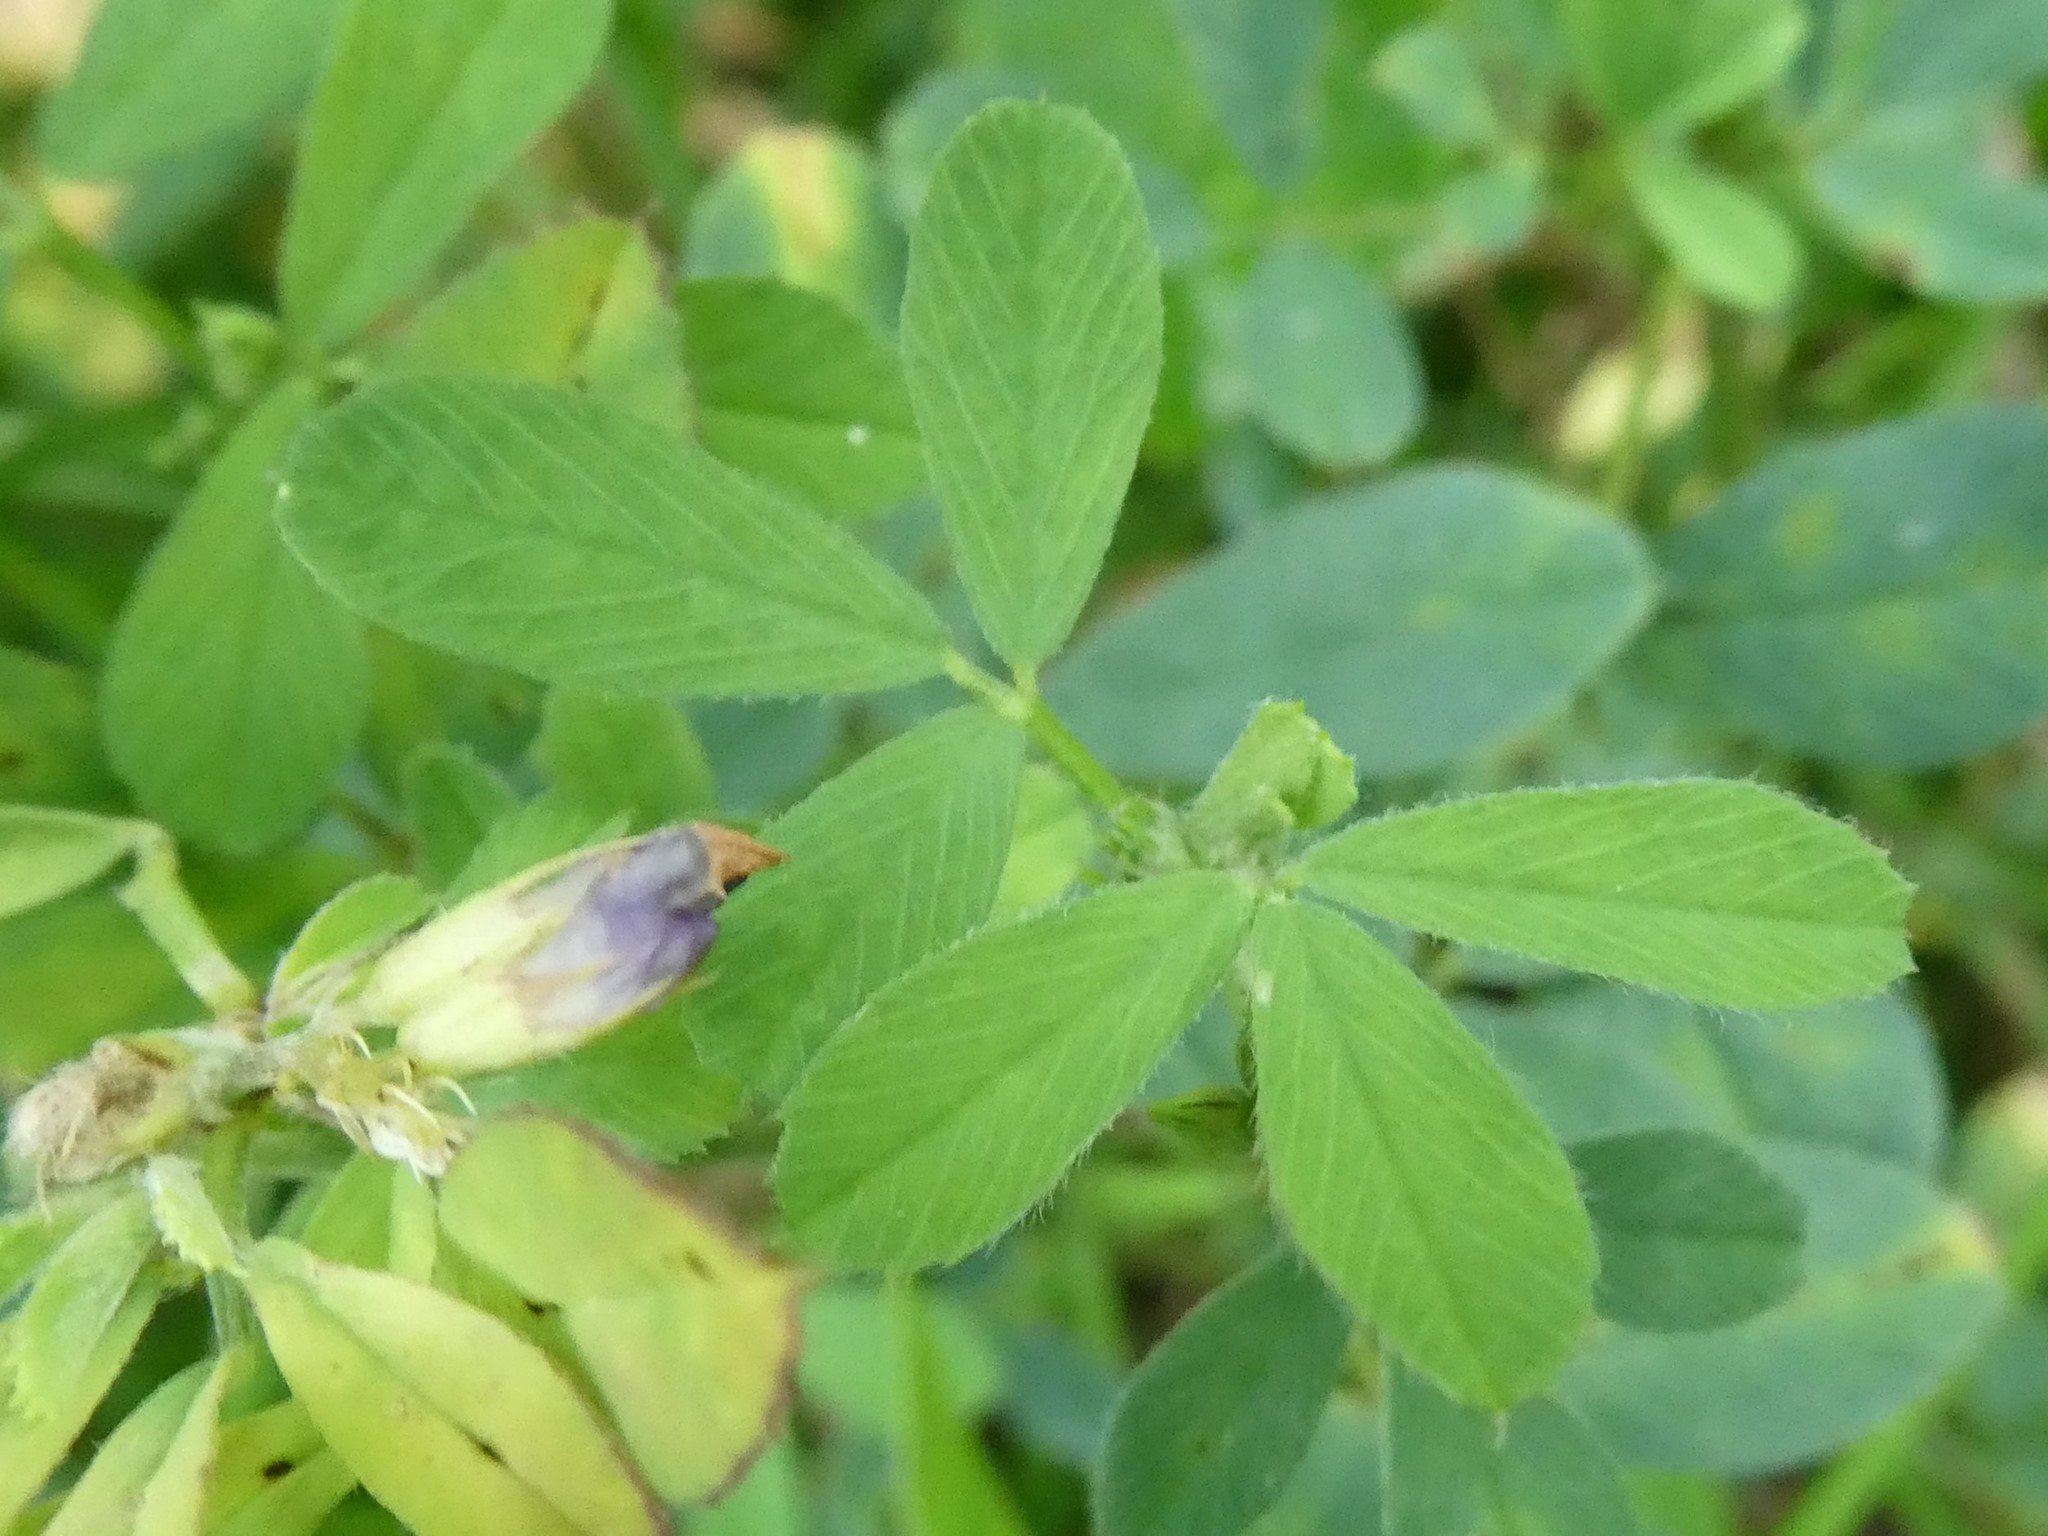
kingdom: Plantae
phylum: Tracheophyta
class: Magnoliopsida
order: Fabales
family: Fabaceae
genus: Medicago
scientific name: Medicago sativa
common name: Alfalfa
